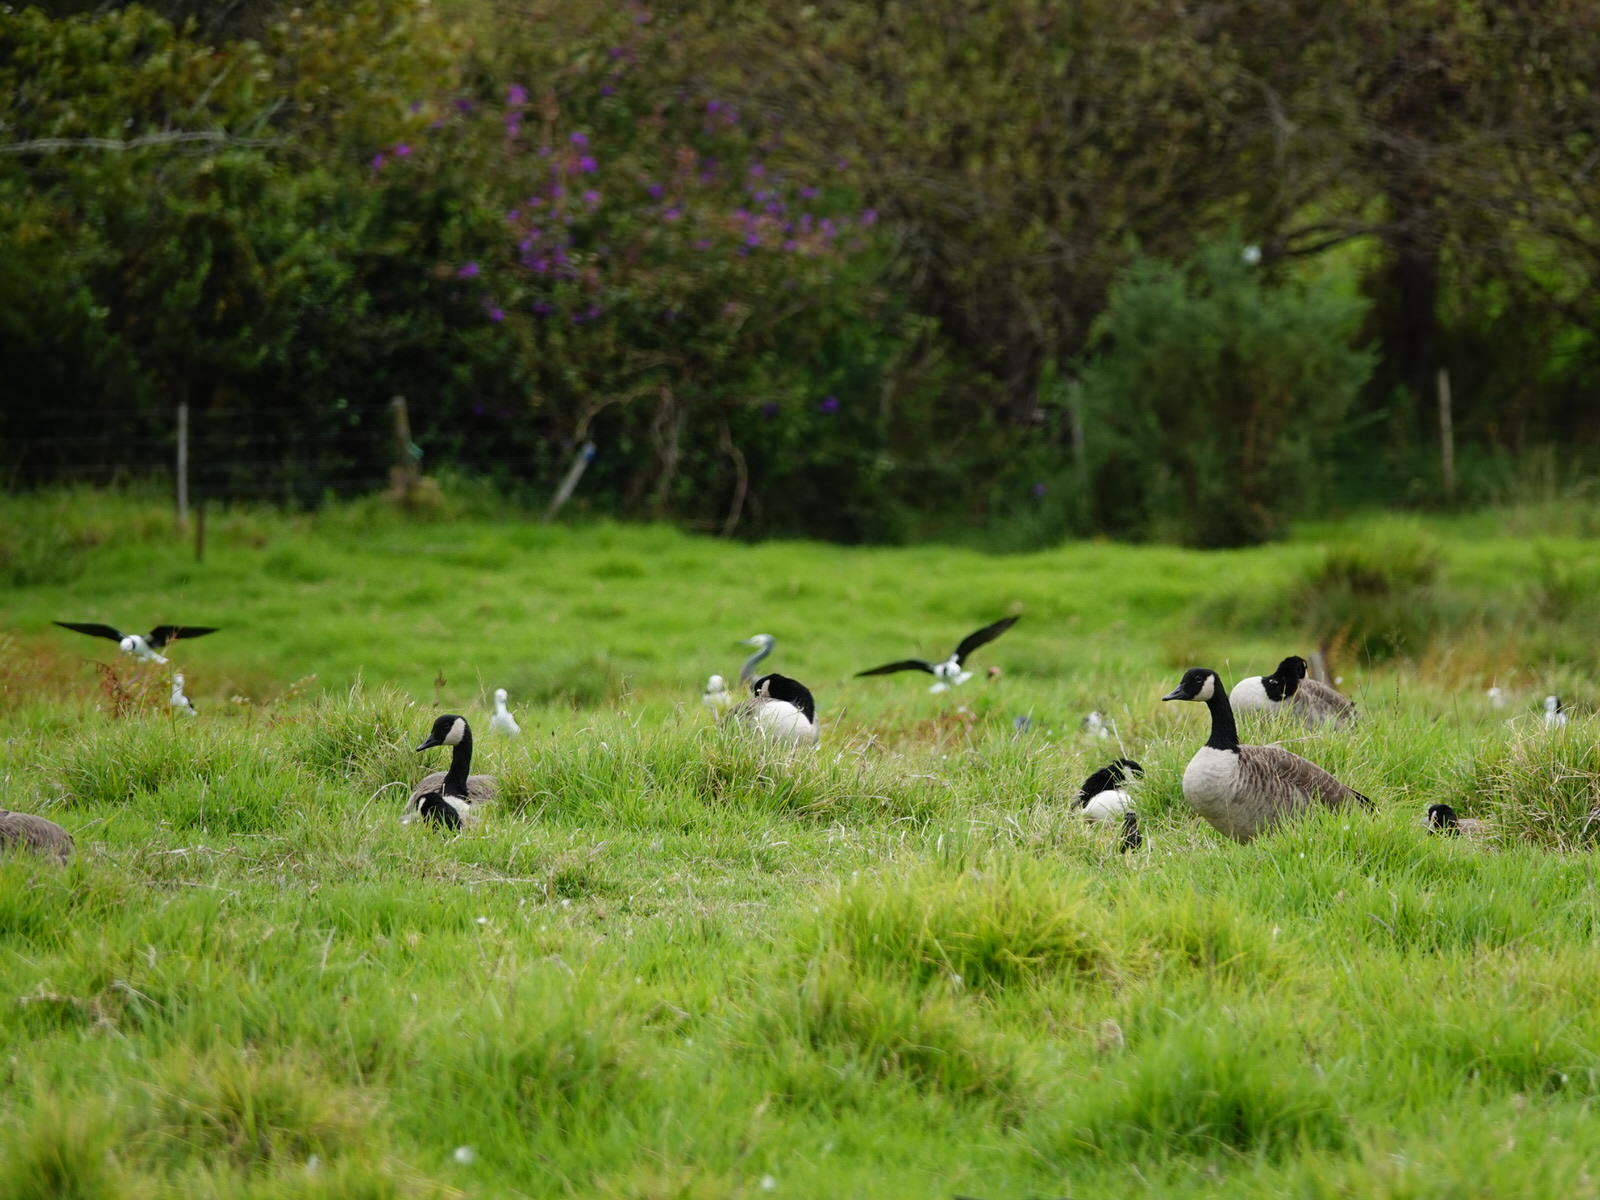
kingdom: Animalia
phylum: Chordata
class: Aves
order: Charadriiformes
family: Recurvirostridae
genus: Himantopus
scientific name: Himantopus leucocephalus
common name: White-headed stilt
